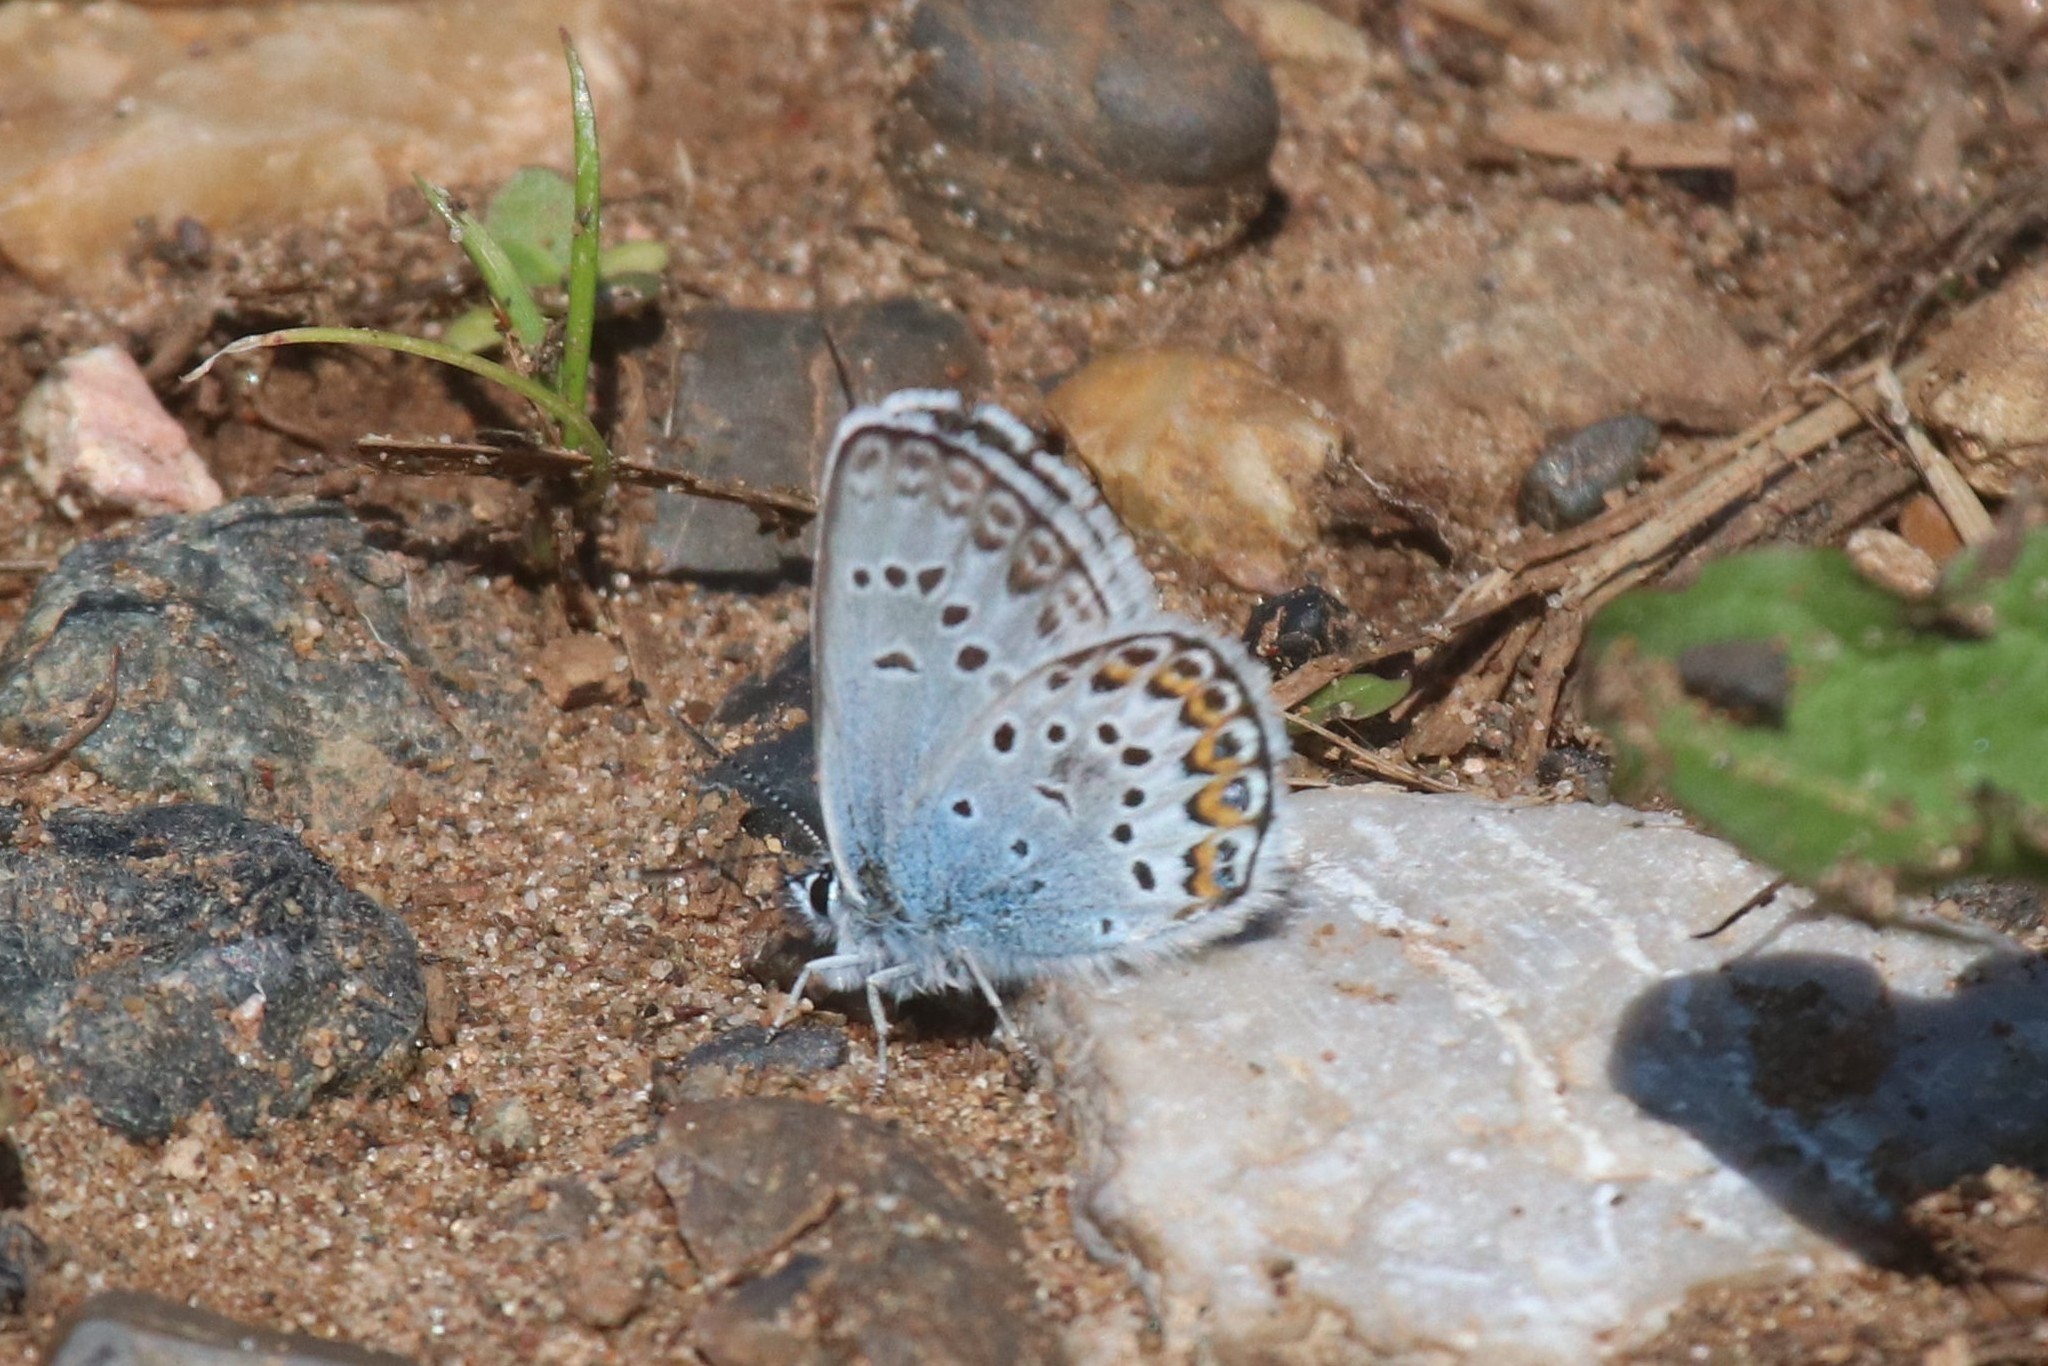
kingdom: Animalia
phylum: Arthropoda
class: Insecta
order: Lepidoptera
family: Lycaenidae
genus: Plebejus
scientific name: Plebejus argus
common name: Silver-studded blue
